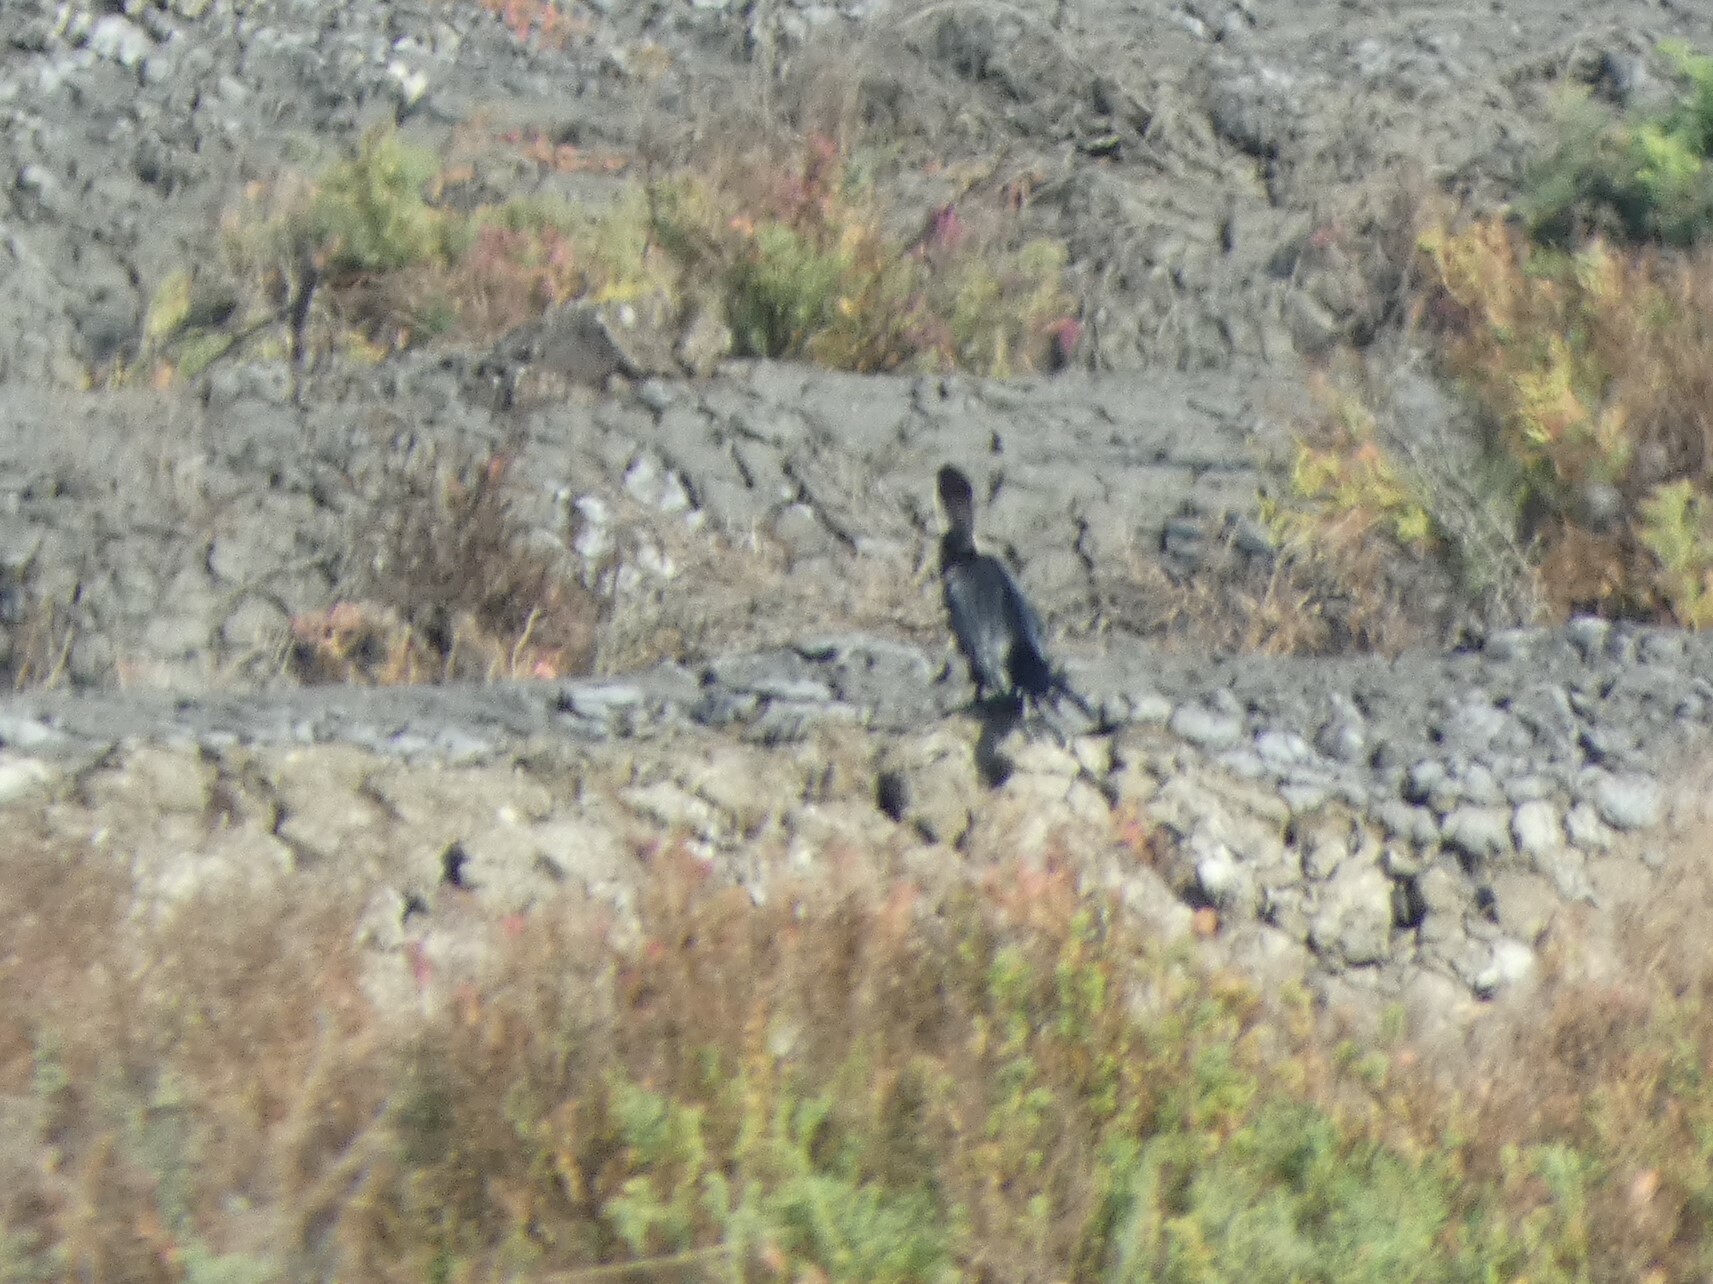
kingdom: Animalia
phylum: Chordata
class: Aves
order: Suliformes
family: Phalacrocoracidae
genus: Microcarbo
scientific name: Microcarbo niger
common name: Little cormorant
